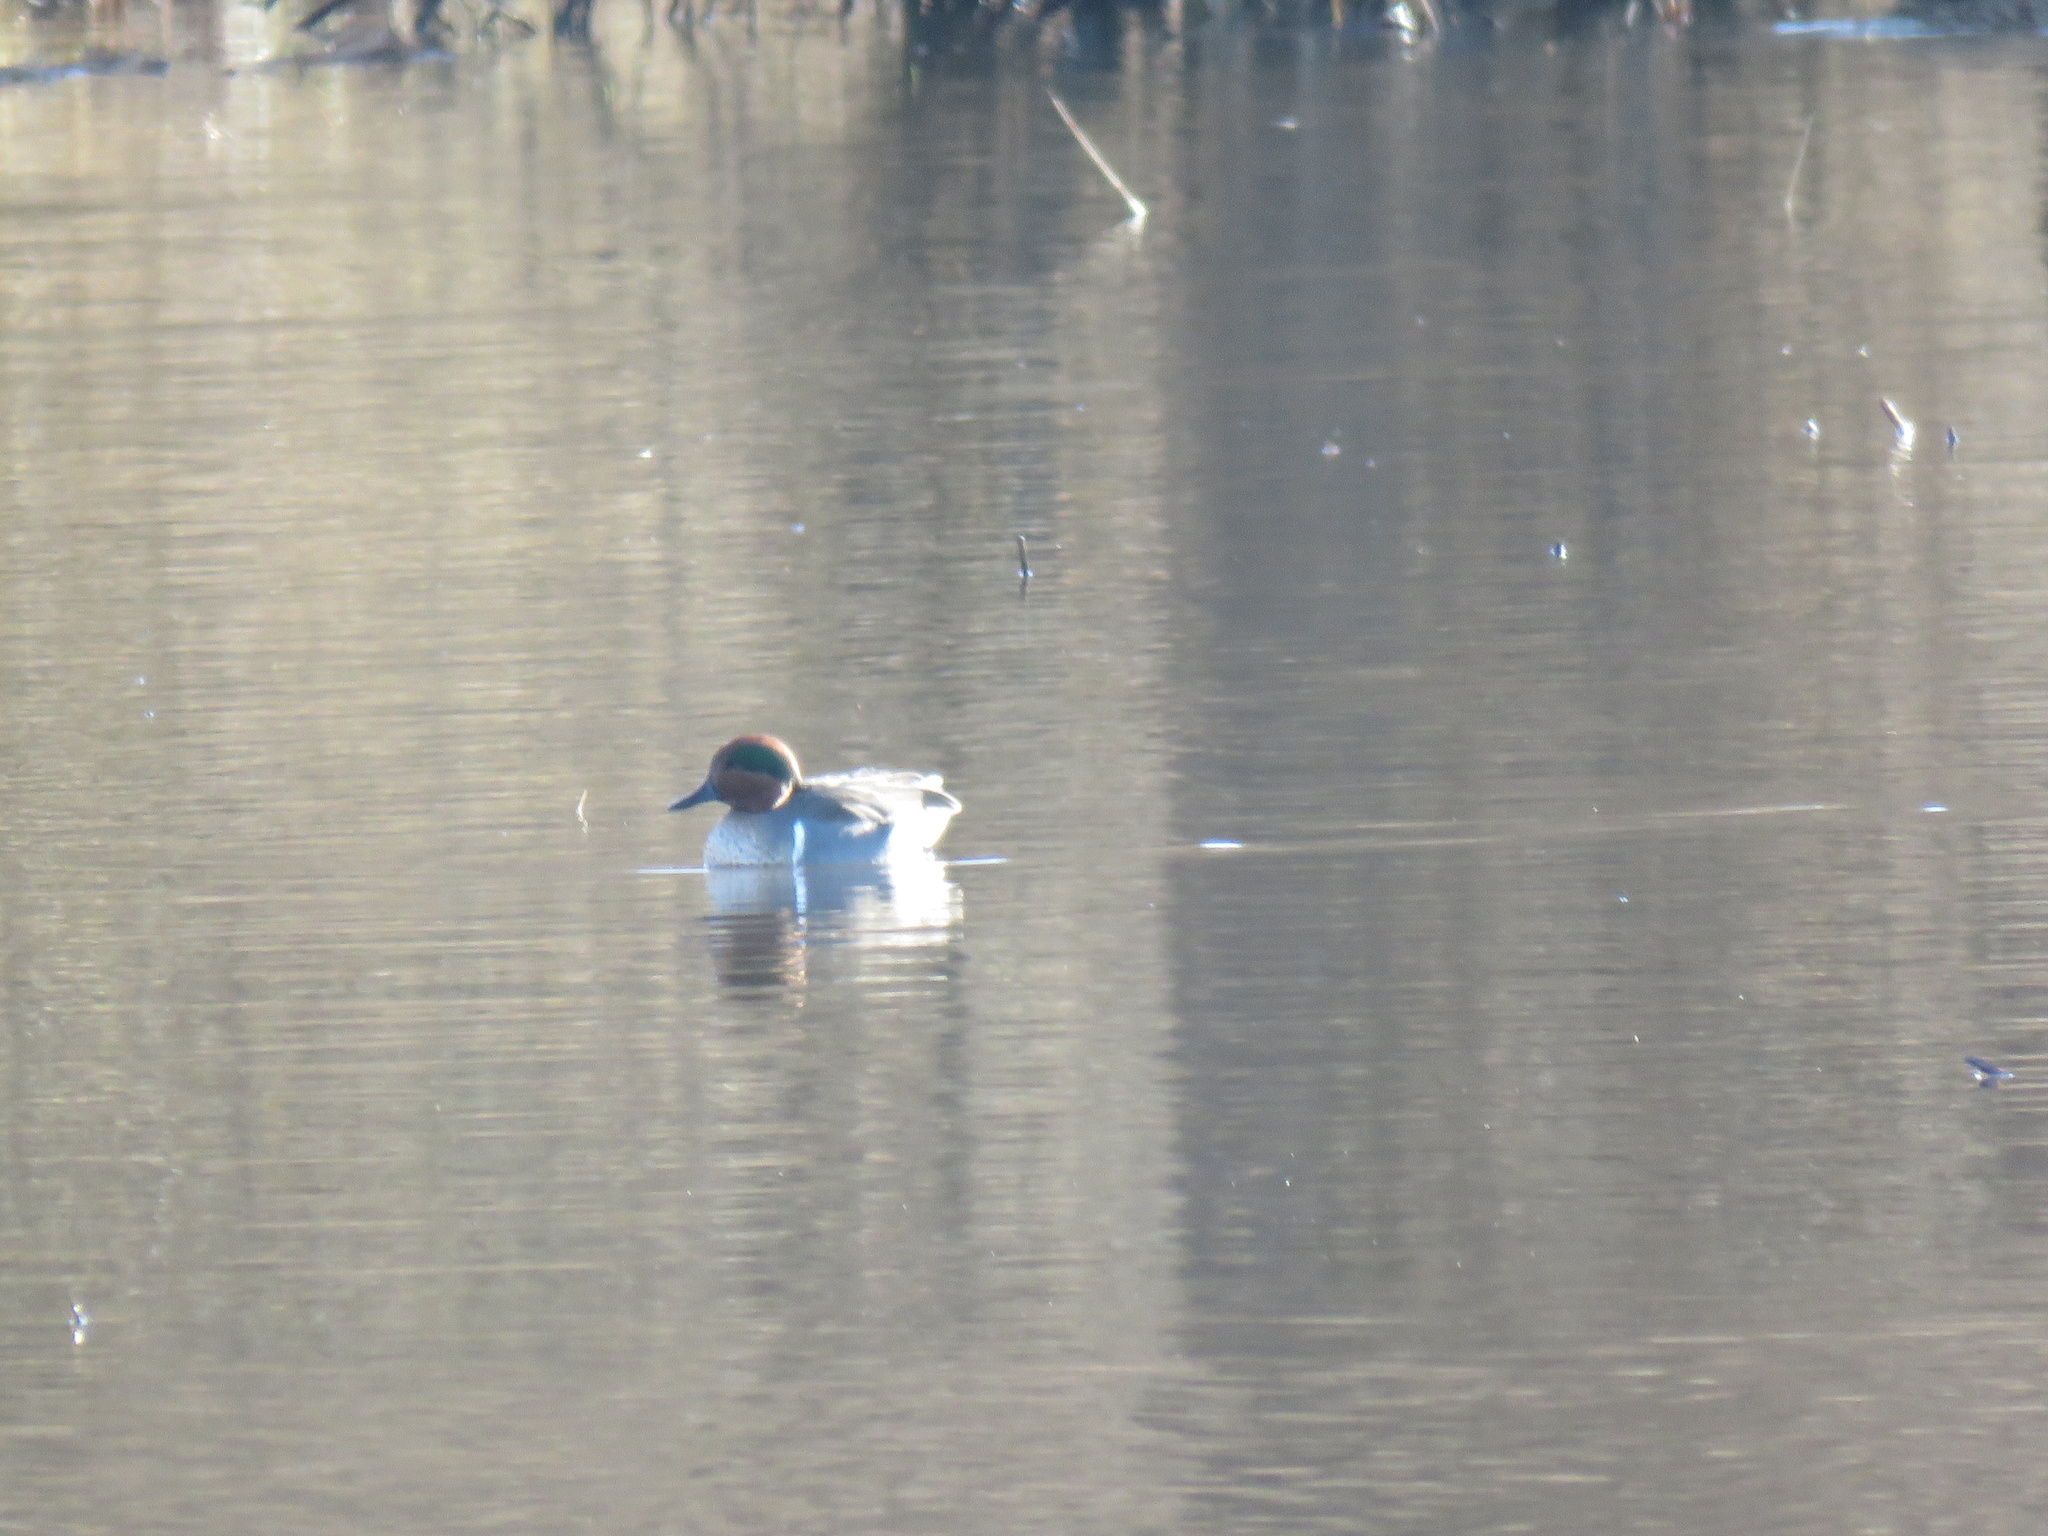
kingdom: Animalia
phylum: Chordata
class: Aves
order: Anseriformes
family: Anatidae
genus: Anas
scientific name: Anas crecca
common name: Eurasian teal
